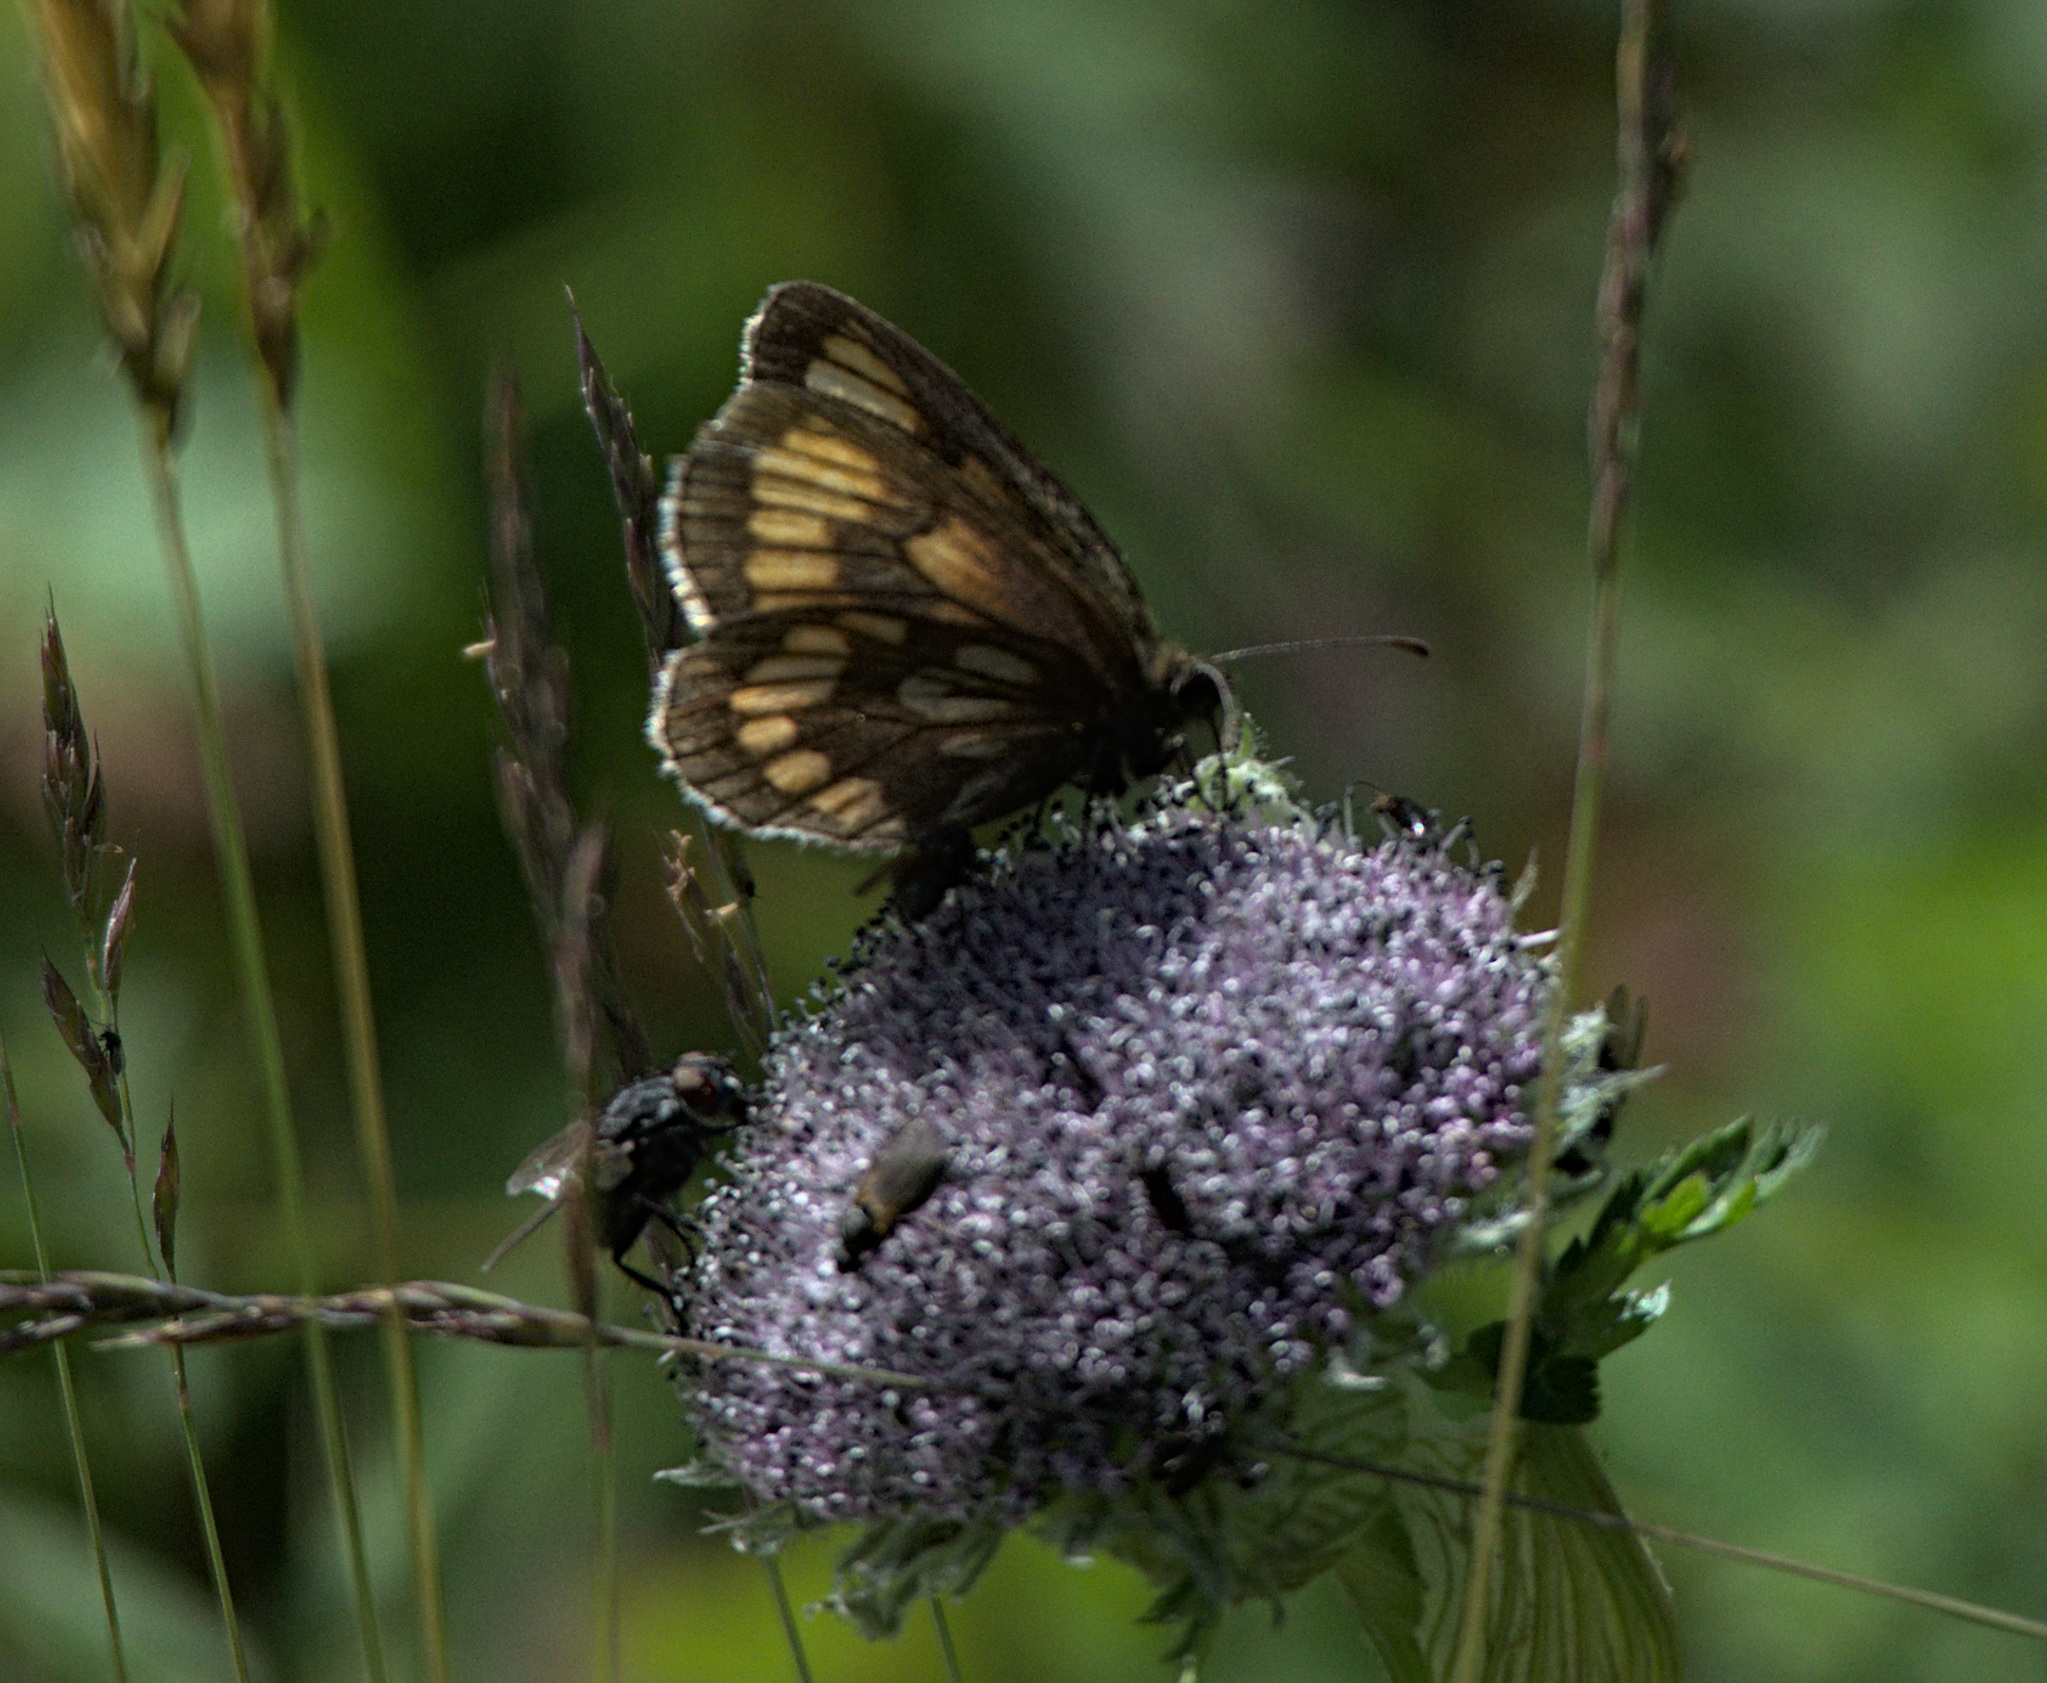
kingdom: Animalia
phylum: Arthropoda
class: Insecta
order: Lepidoptera
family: Nymphalidae
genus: Erebia
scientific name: Erebia maurisius
